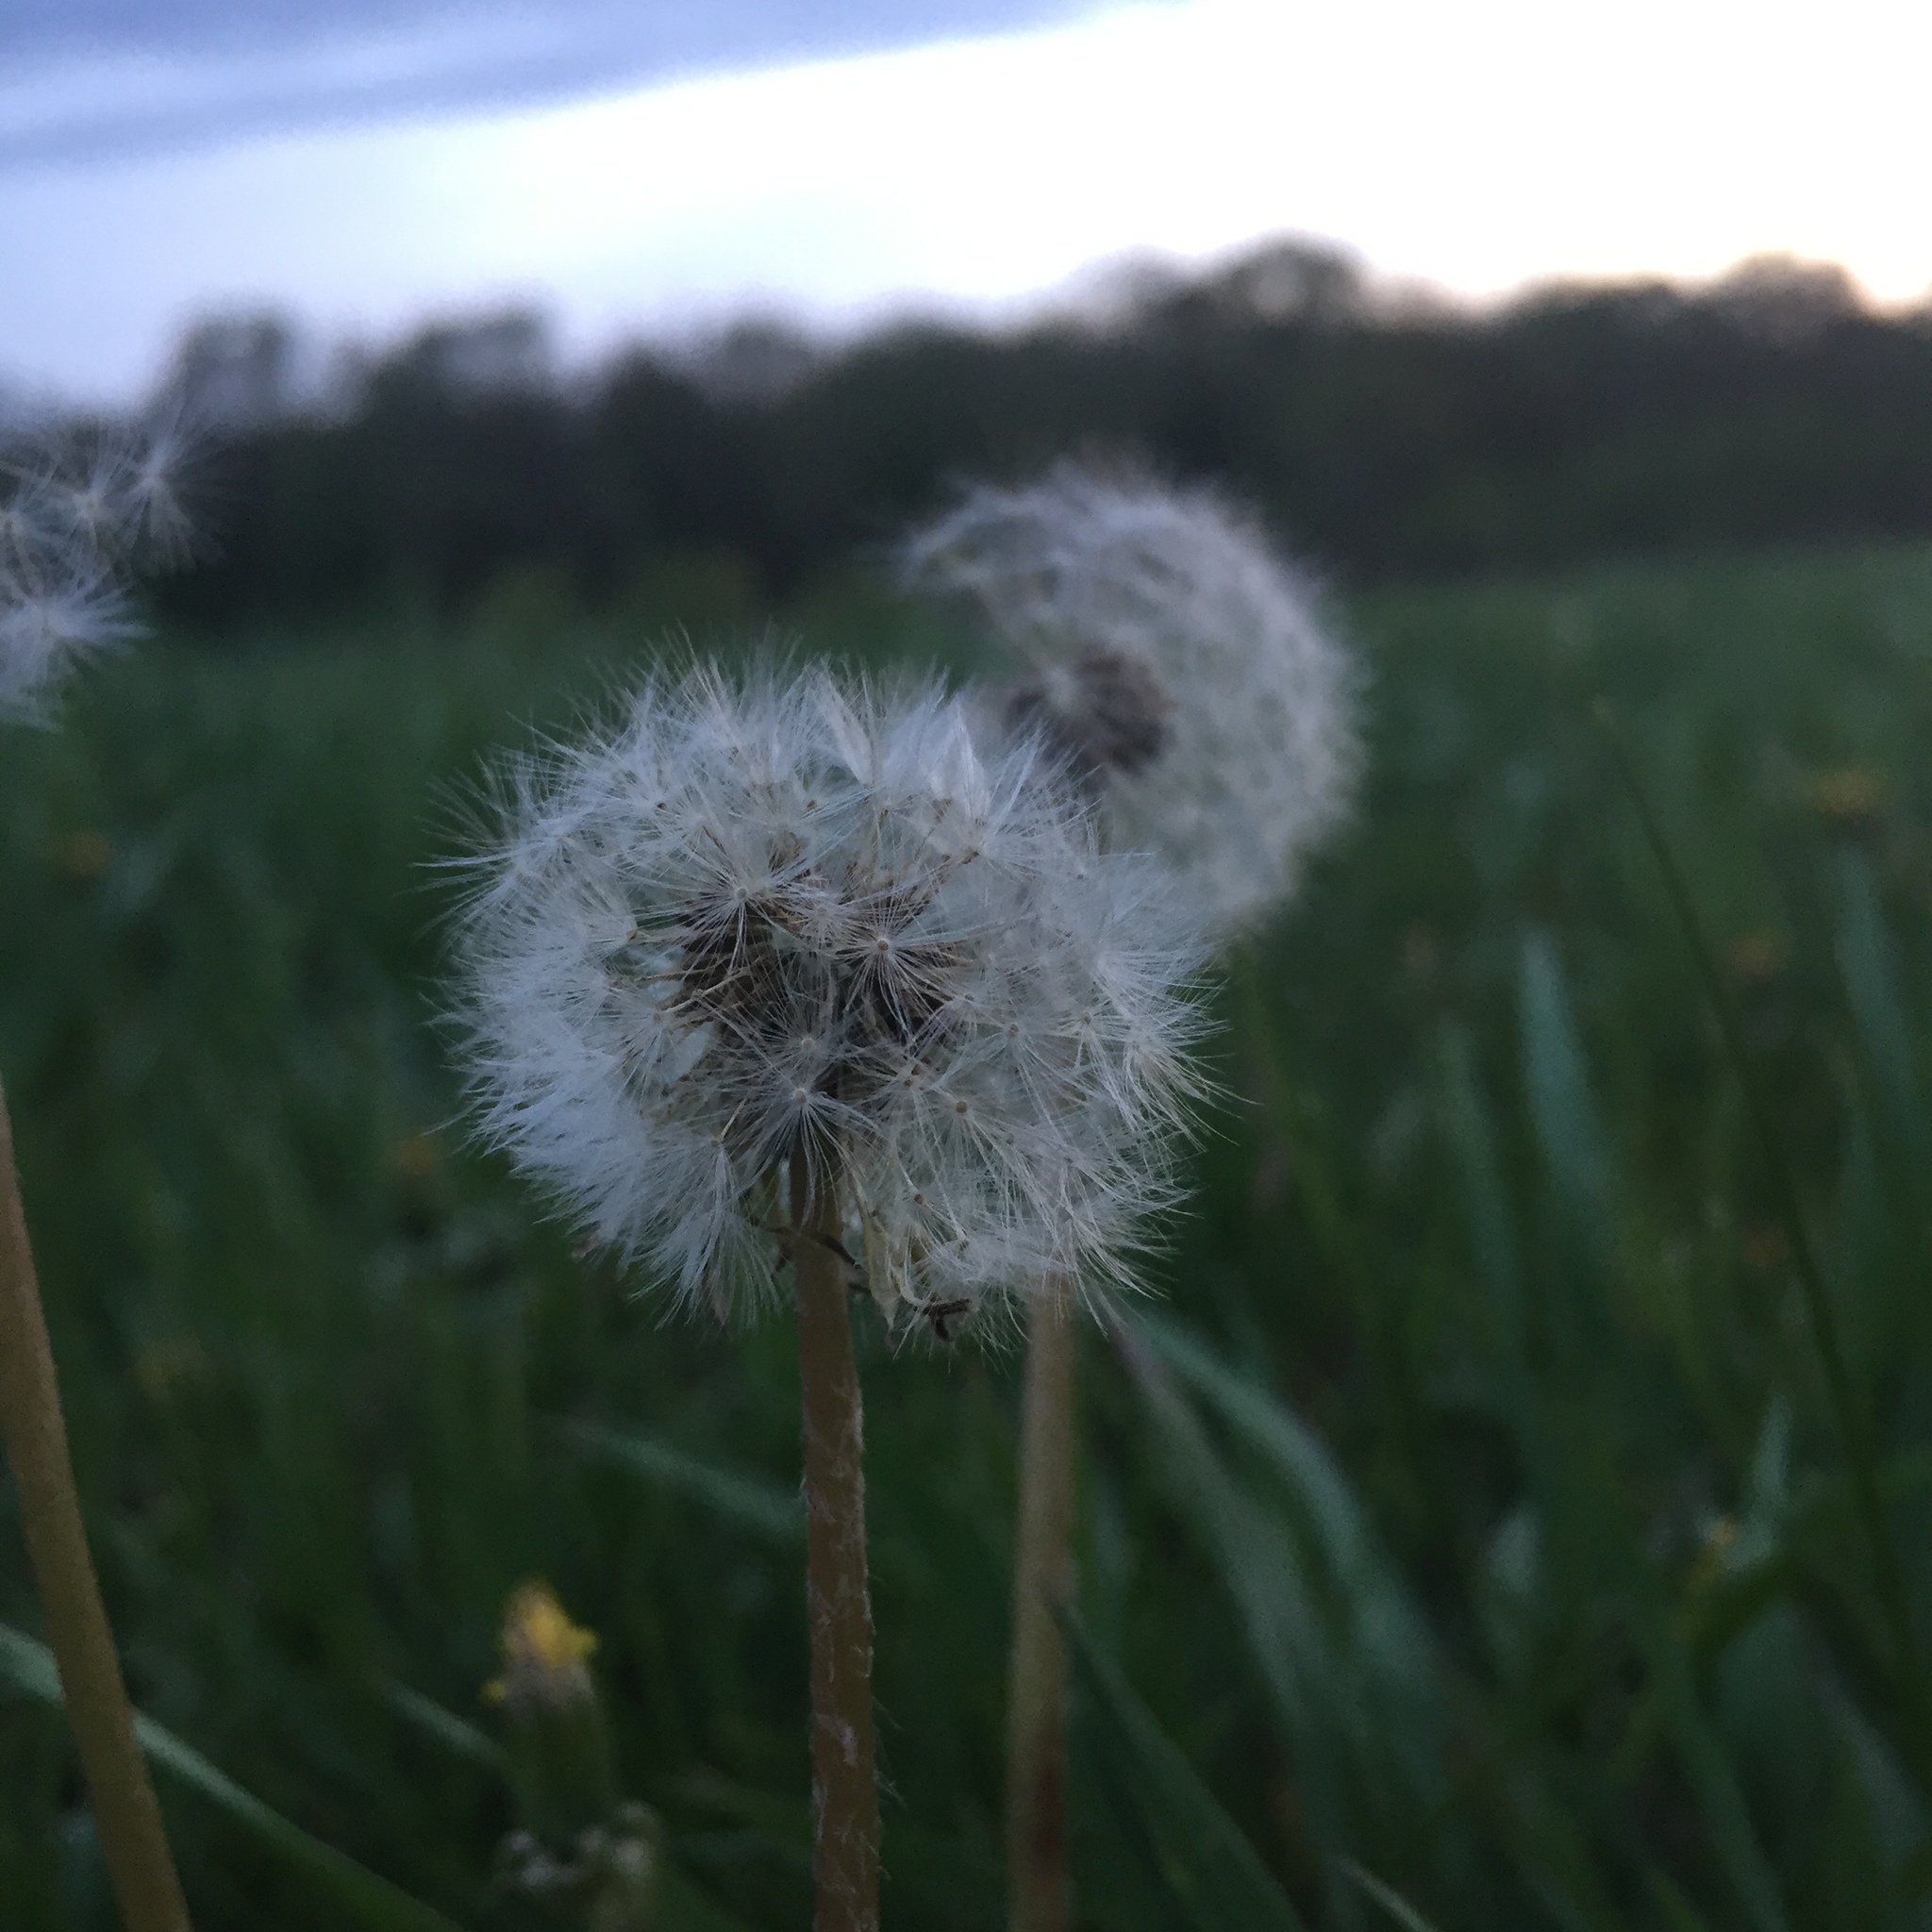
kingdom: Plantae
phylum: Tracheophyta
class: Magnoliopsida
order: Asterales
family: Asteraceae
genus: Taraxacum
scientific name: Taraxacum officinale
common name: Common dandelion
